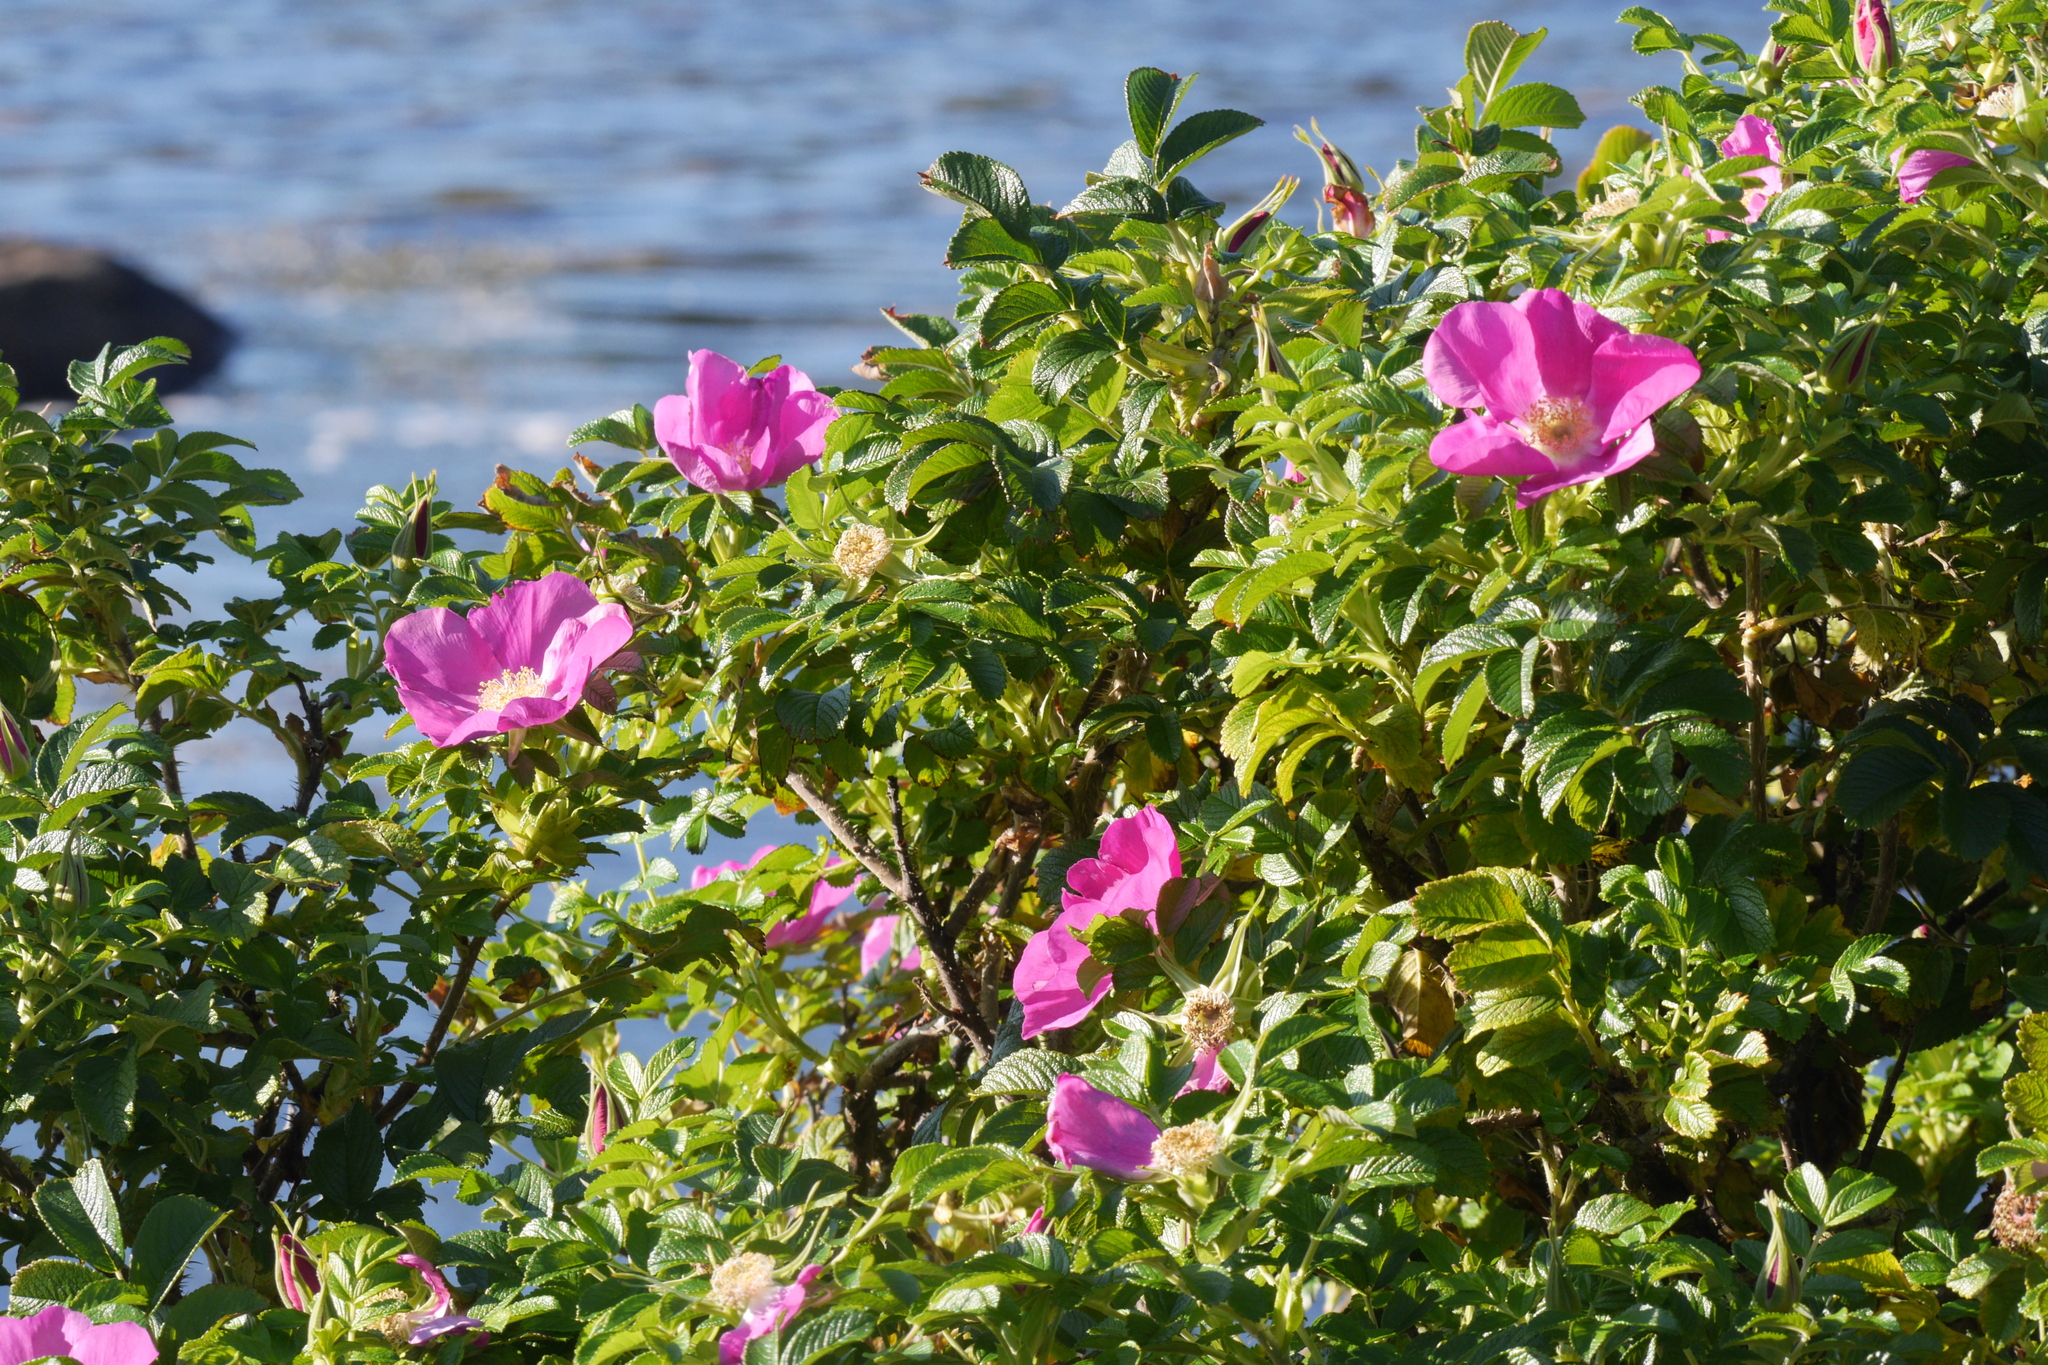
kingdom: Plantae
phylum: Tracheophyta
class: Magnoliopsida
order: Rosales
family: Rosaceae
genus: Rosa
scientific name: Rosa rugosa
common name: Japanese rose
